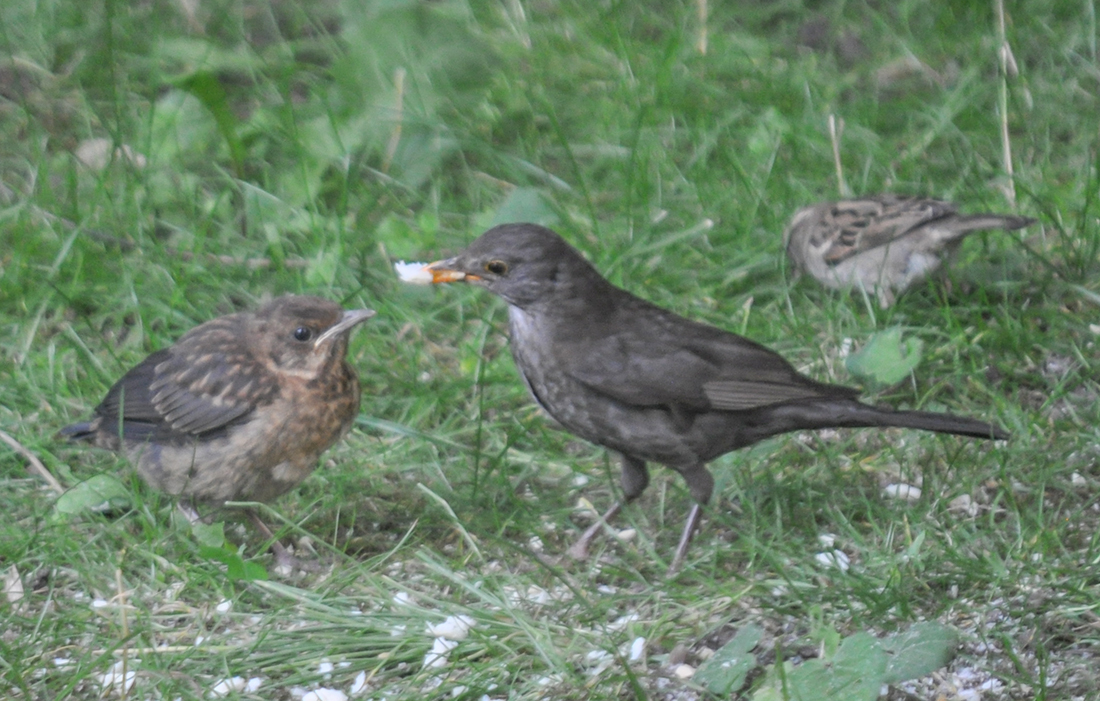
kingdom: Animalia
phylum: Chordata
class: Aves
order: Passeriformes
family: Turdidae
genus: Turdus
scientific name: Turdus merula
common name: Common blackbird
